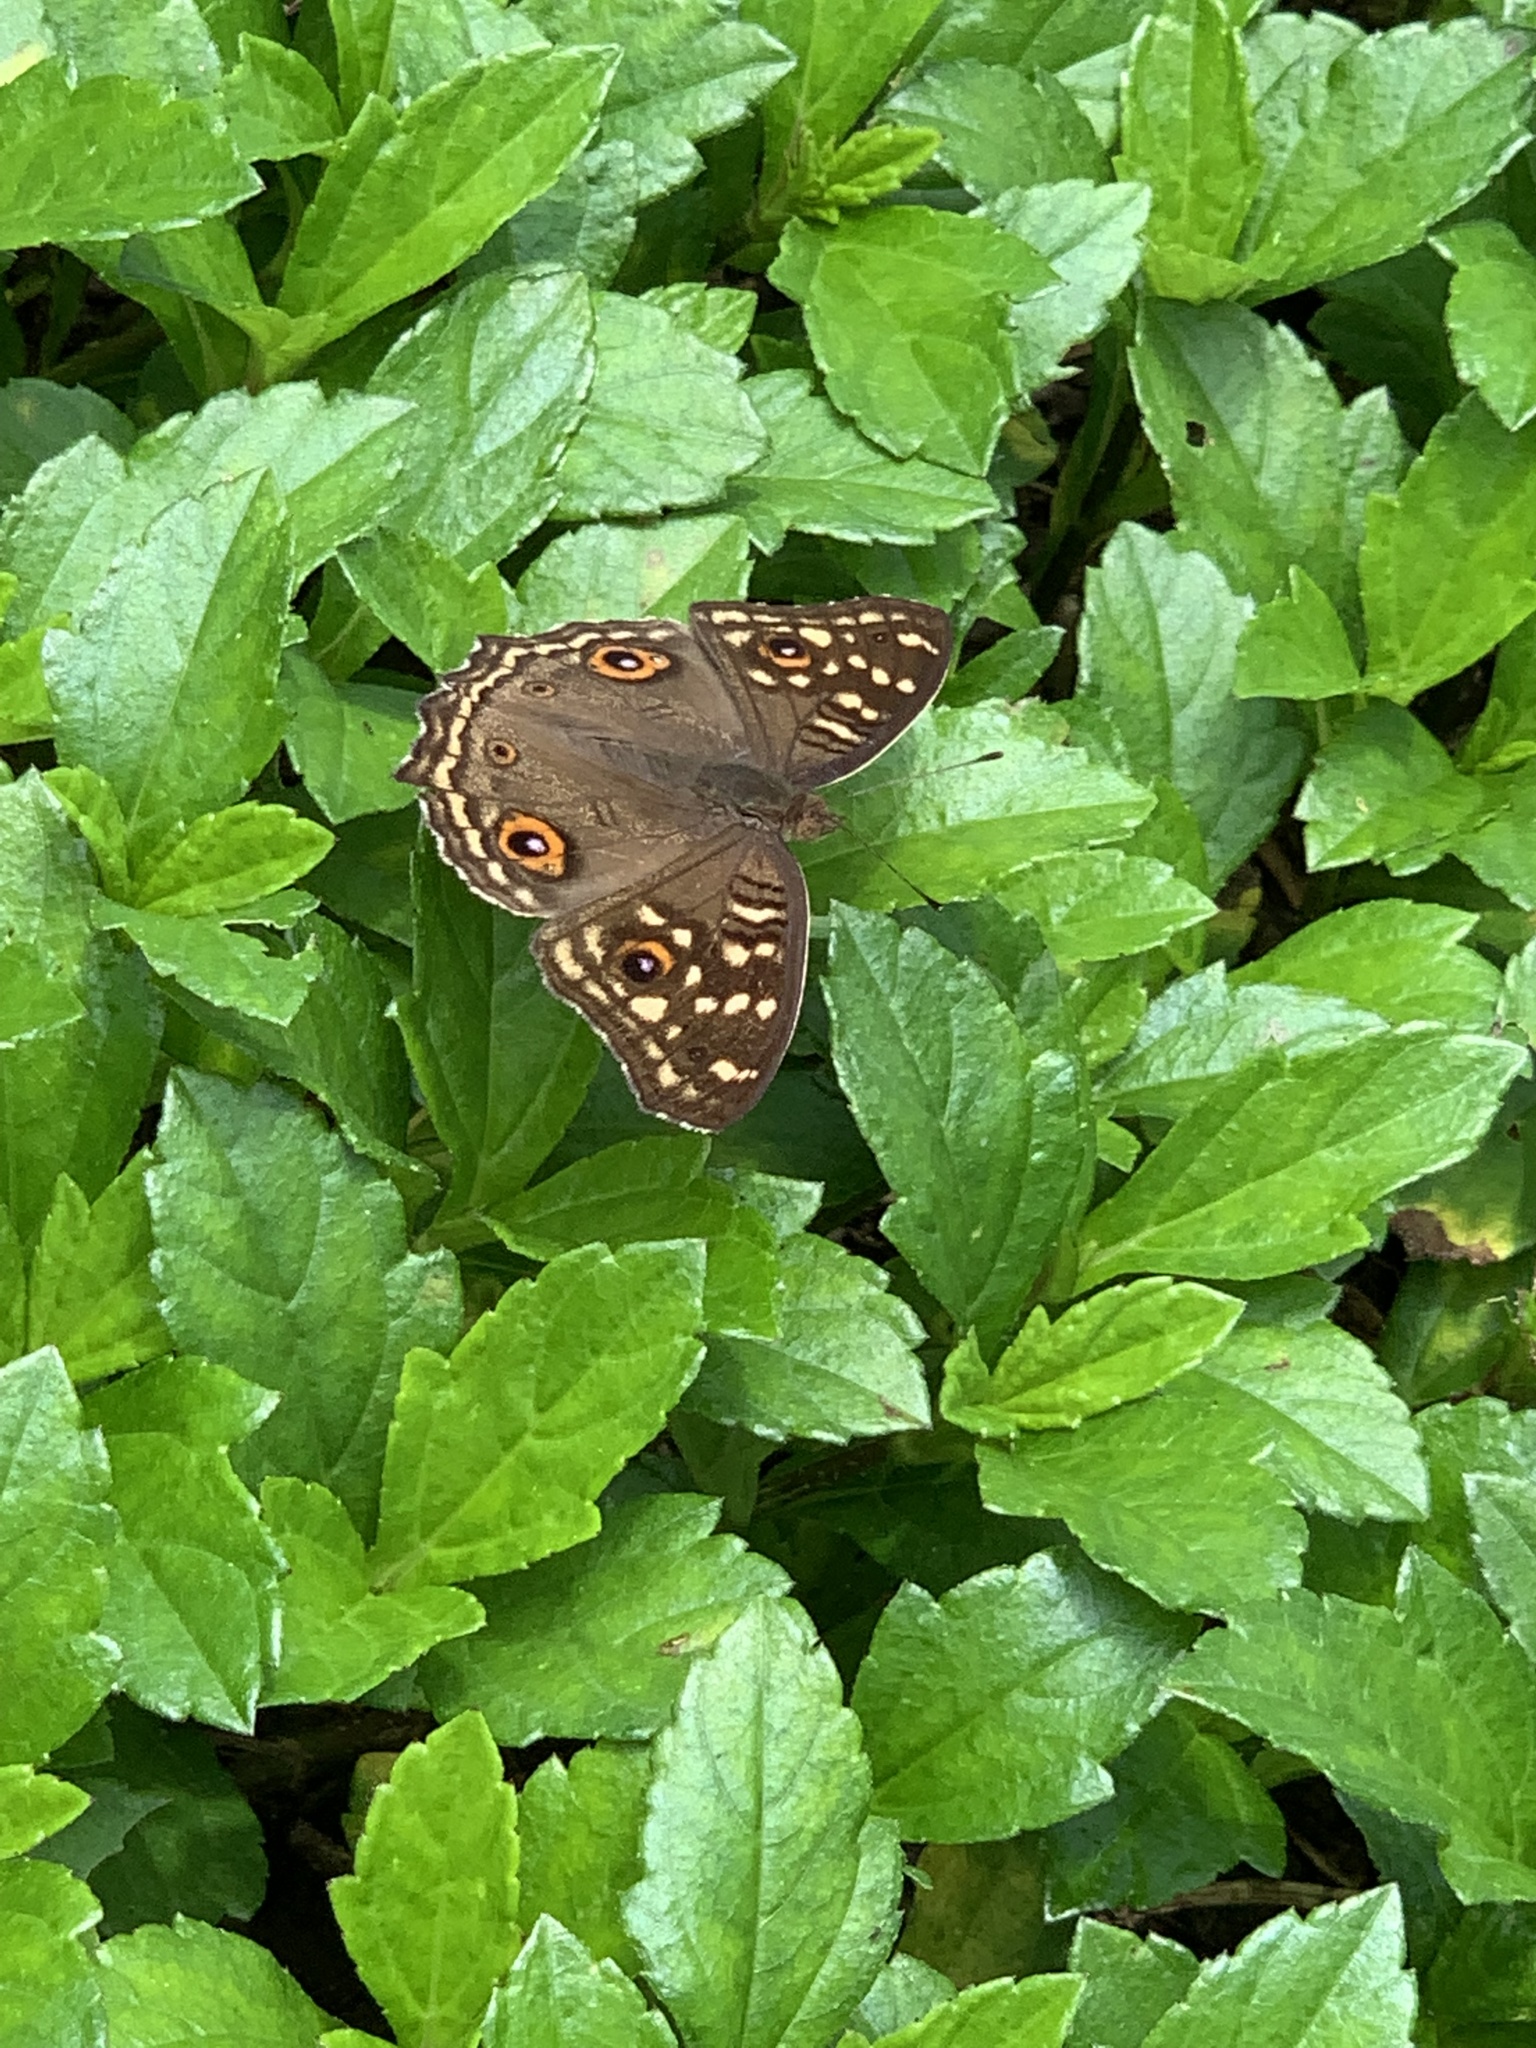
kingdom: Animalia
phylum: Arthropoda
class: Insecta
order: Lepidoptera
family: Nymphalidae
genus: Junonia
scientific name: Junonia lemonias
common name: Lemon pansy
